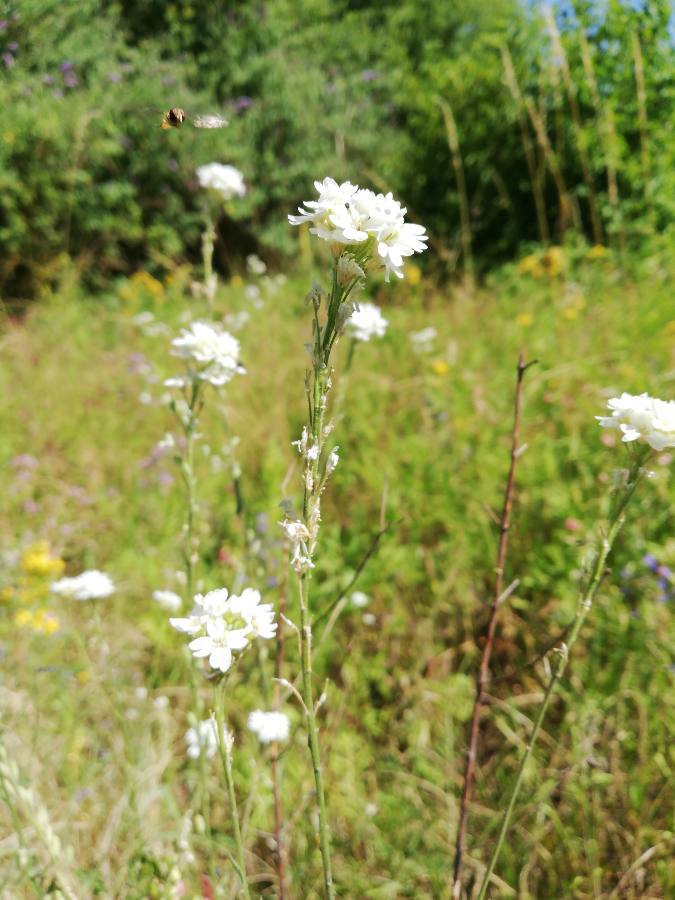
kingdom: Plantae
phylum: Tracheophyta
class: Magnoliopsida
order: Brassicales
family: Brassicaceae
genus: Berteroa
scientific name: Berteroa incana
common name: Hoary alison
